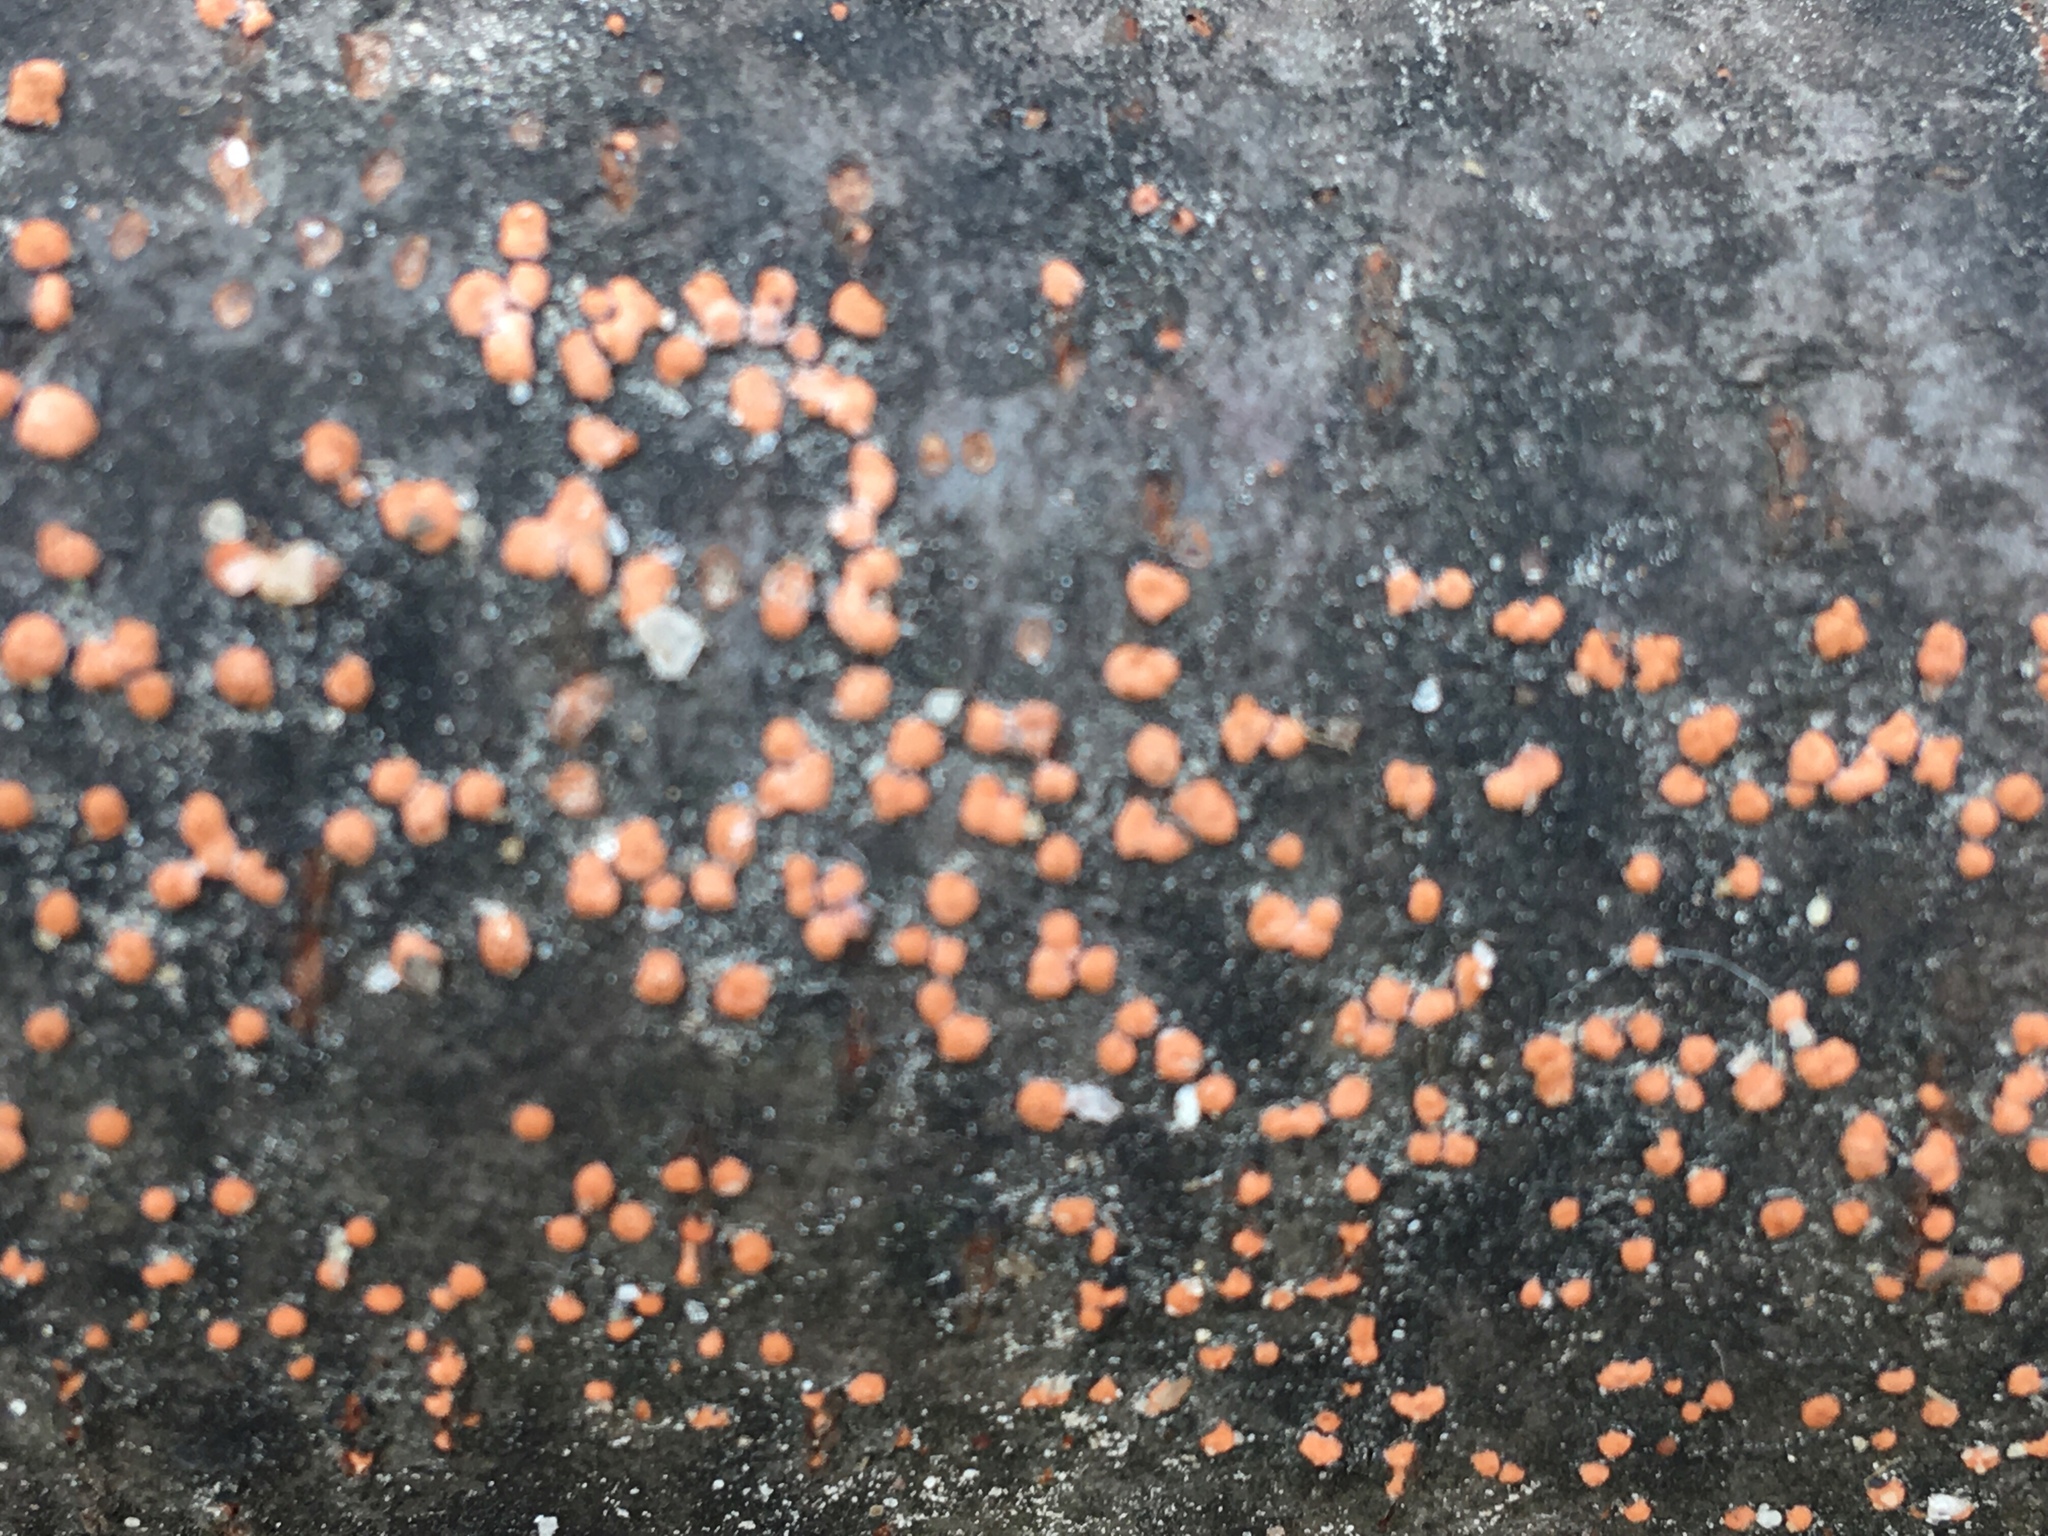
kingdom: Fungi
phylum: Ascomycota
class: Sordariomycetes
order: Hypocreales
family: Nectriaceae
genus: Nectria
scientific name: Nectria cinnabarina
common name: Coral spot
